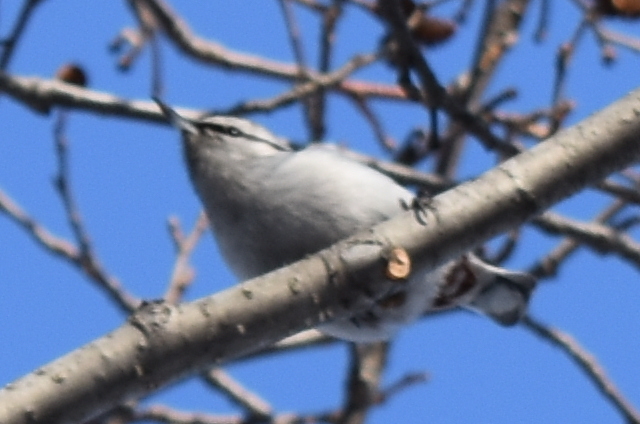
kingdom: Animalia
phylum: Chordata
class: Aves
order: Passeriformes
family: Sittidae
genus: Sitta
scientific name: Sitta europaea
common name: Eurasian nuthatch
